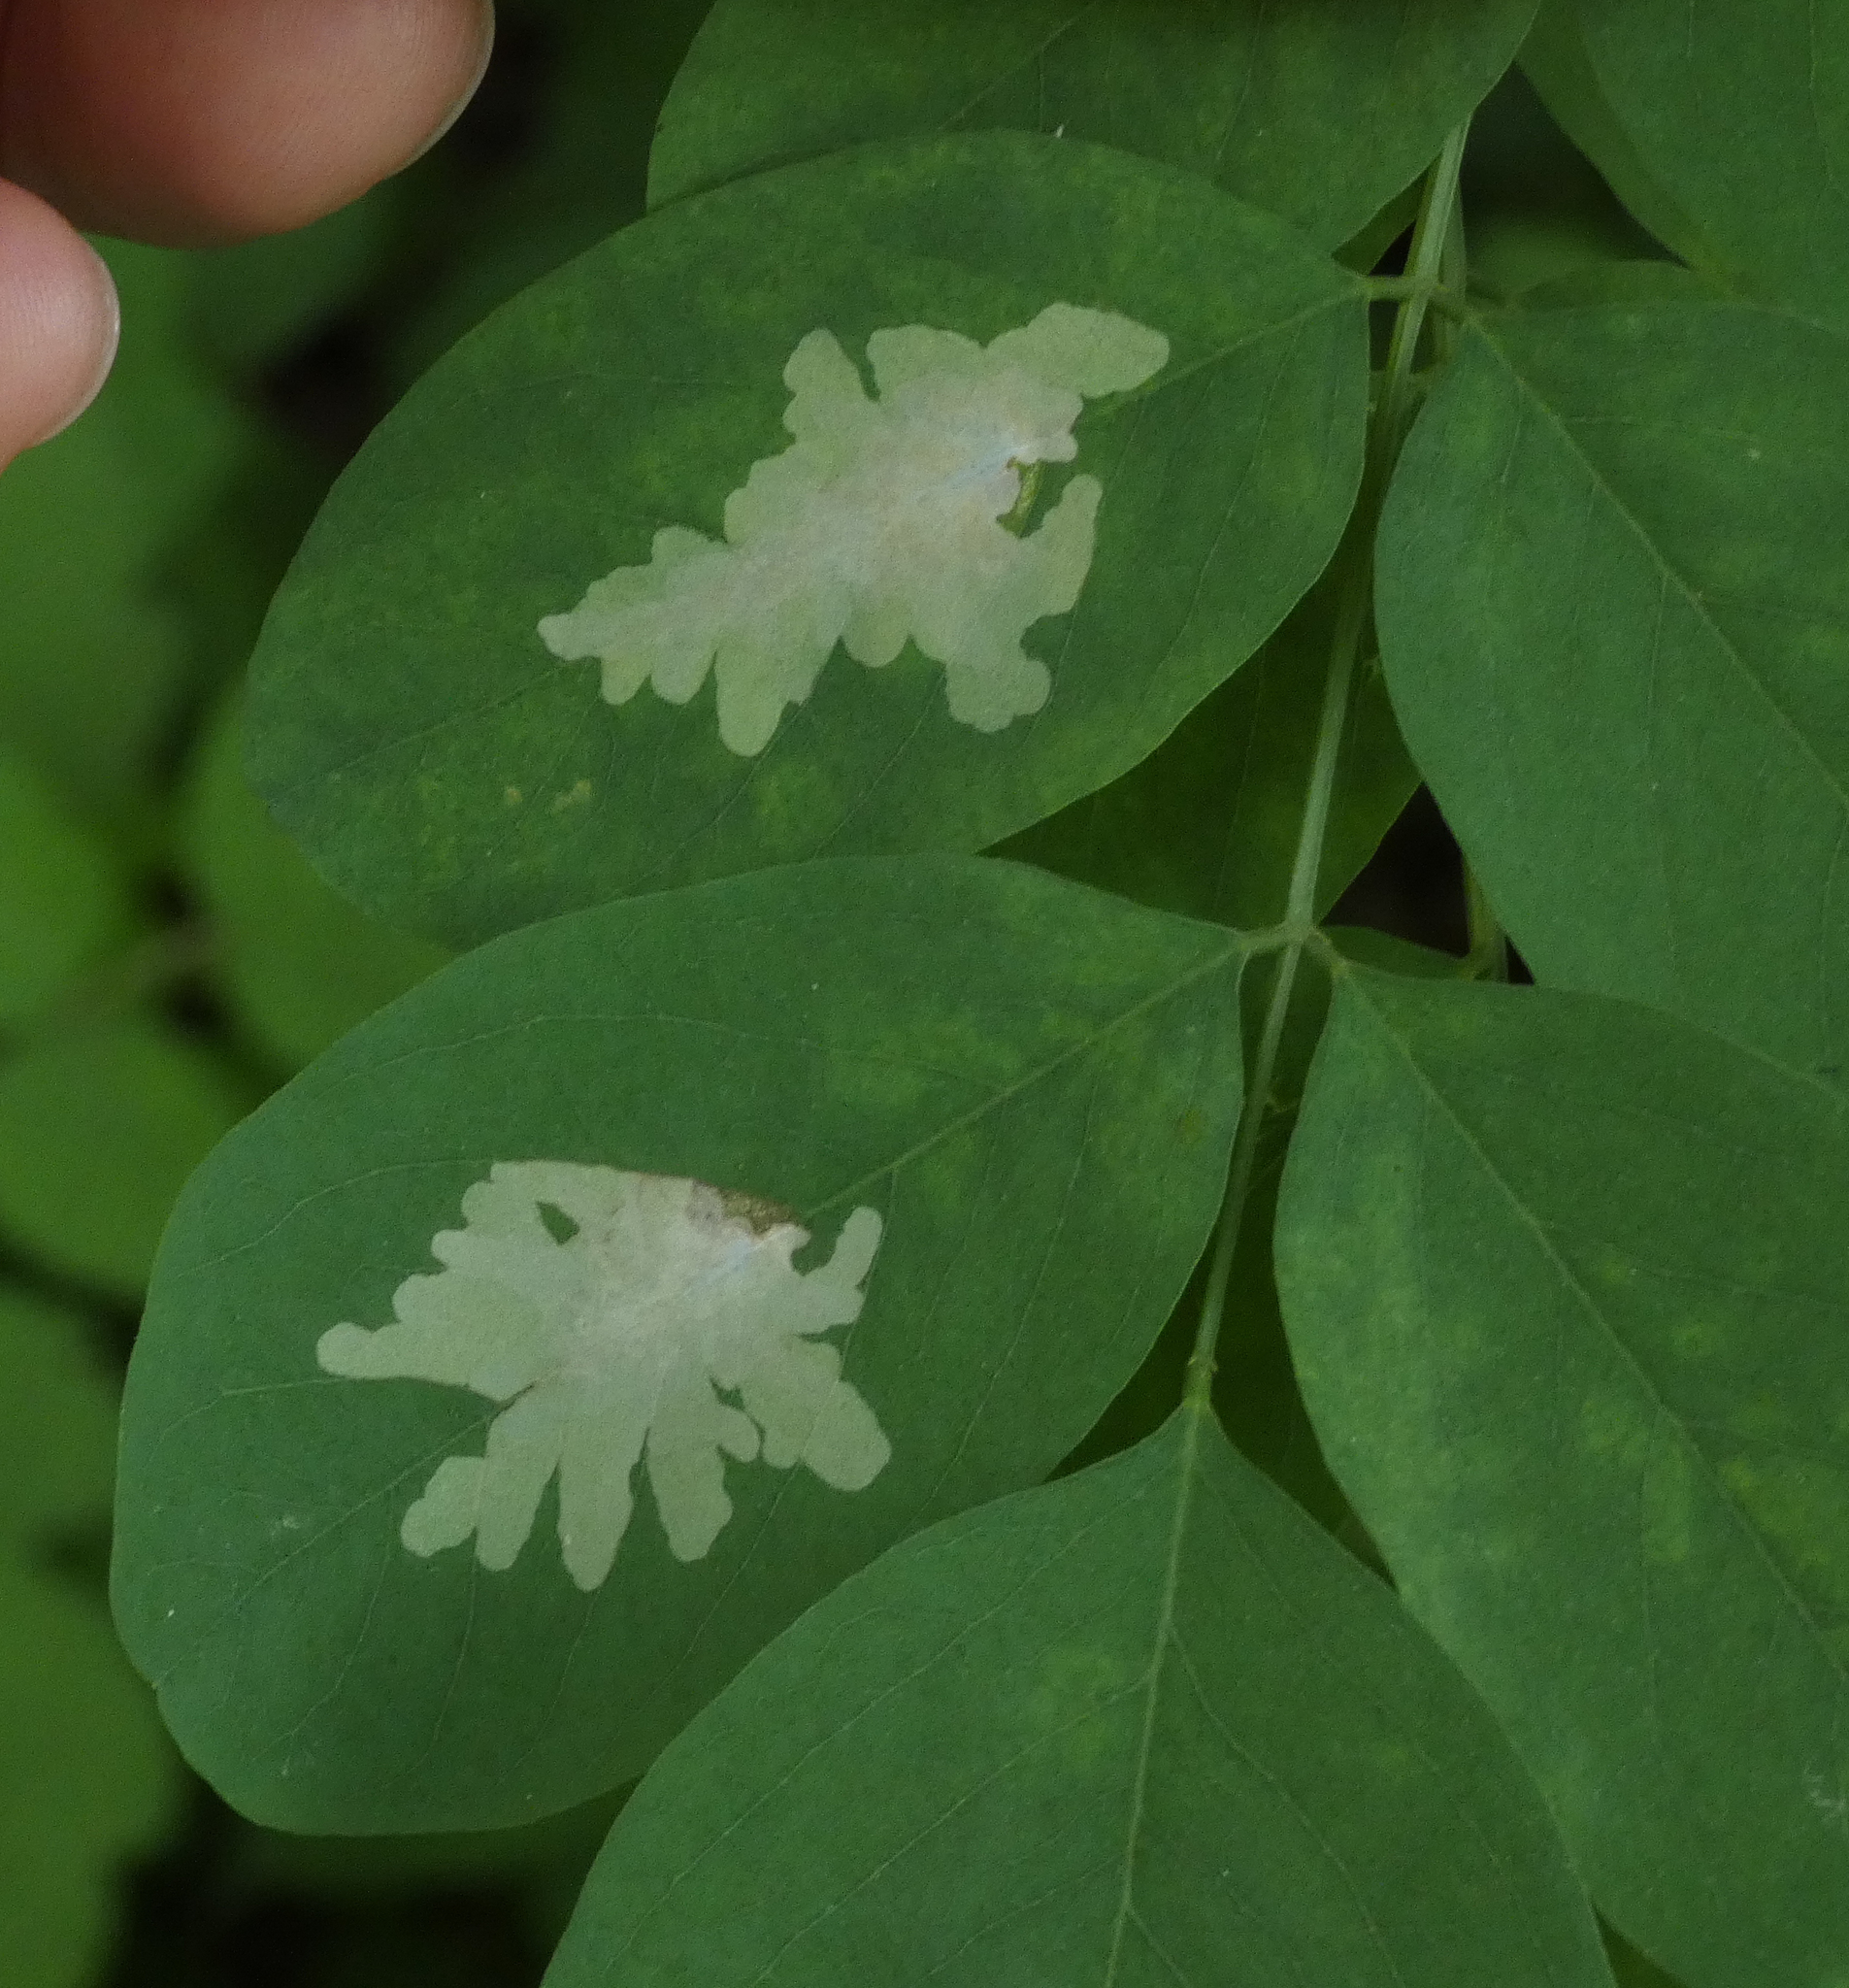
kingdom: Animalia
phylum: Arthropoda
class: Insecta
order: Lepidoptera
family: Gracillariidae
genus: Parectopa
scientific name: Parectopa robiniella
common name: Locust digitate leafminer
